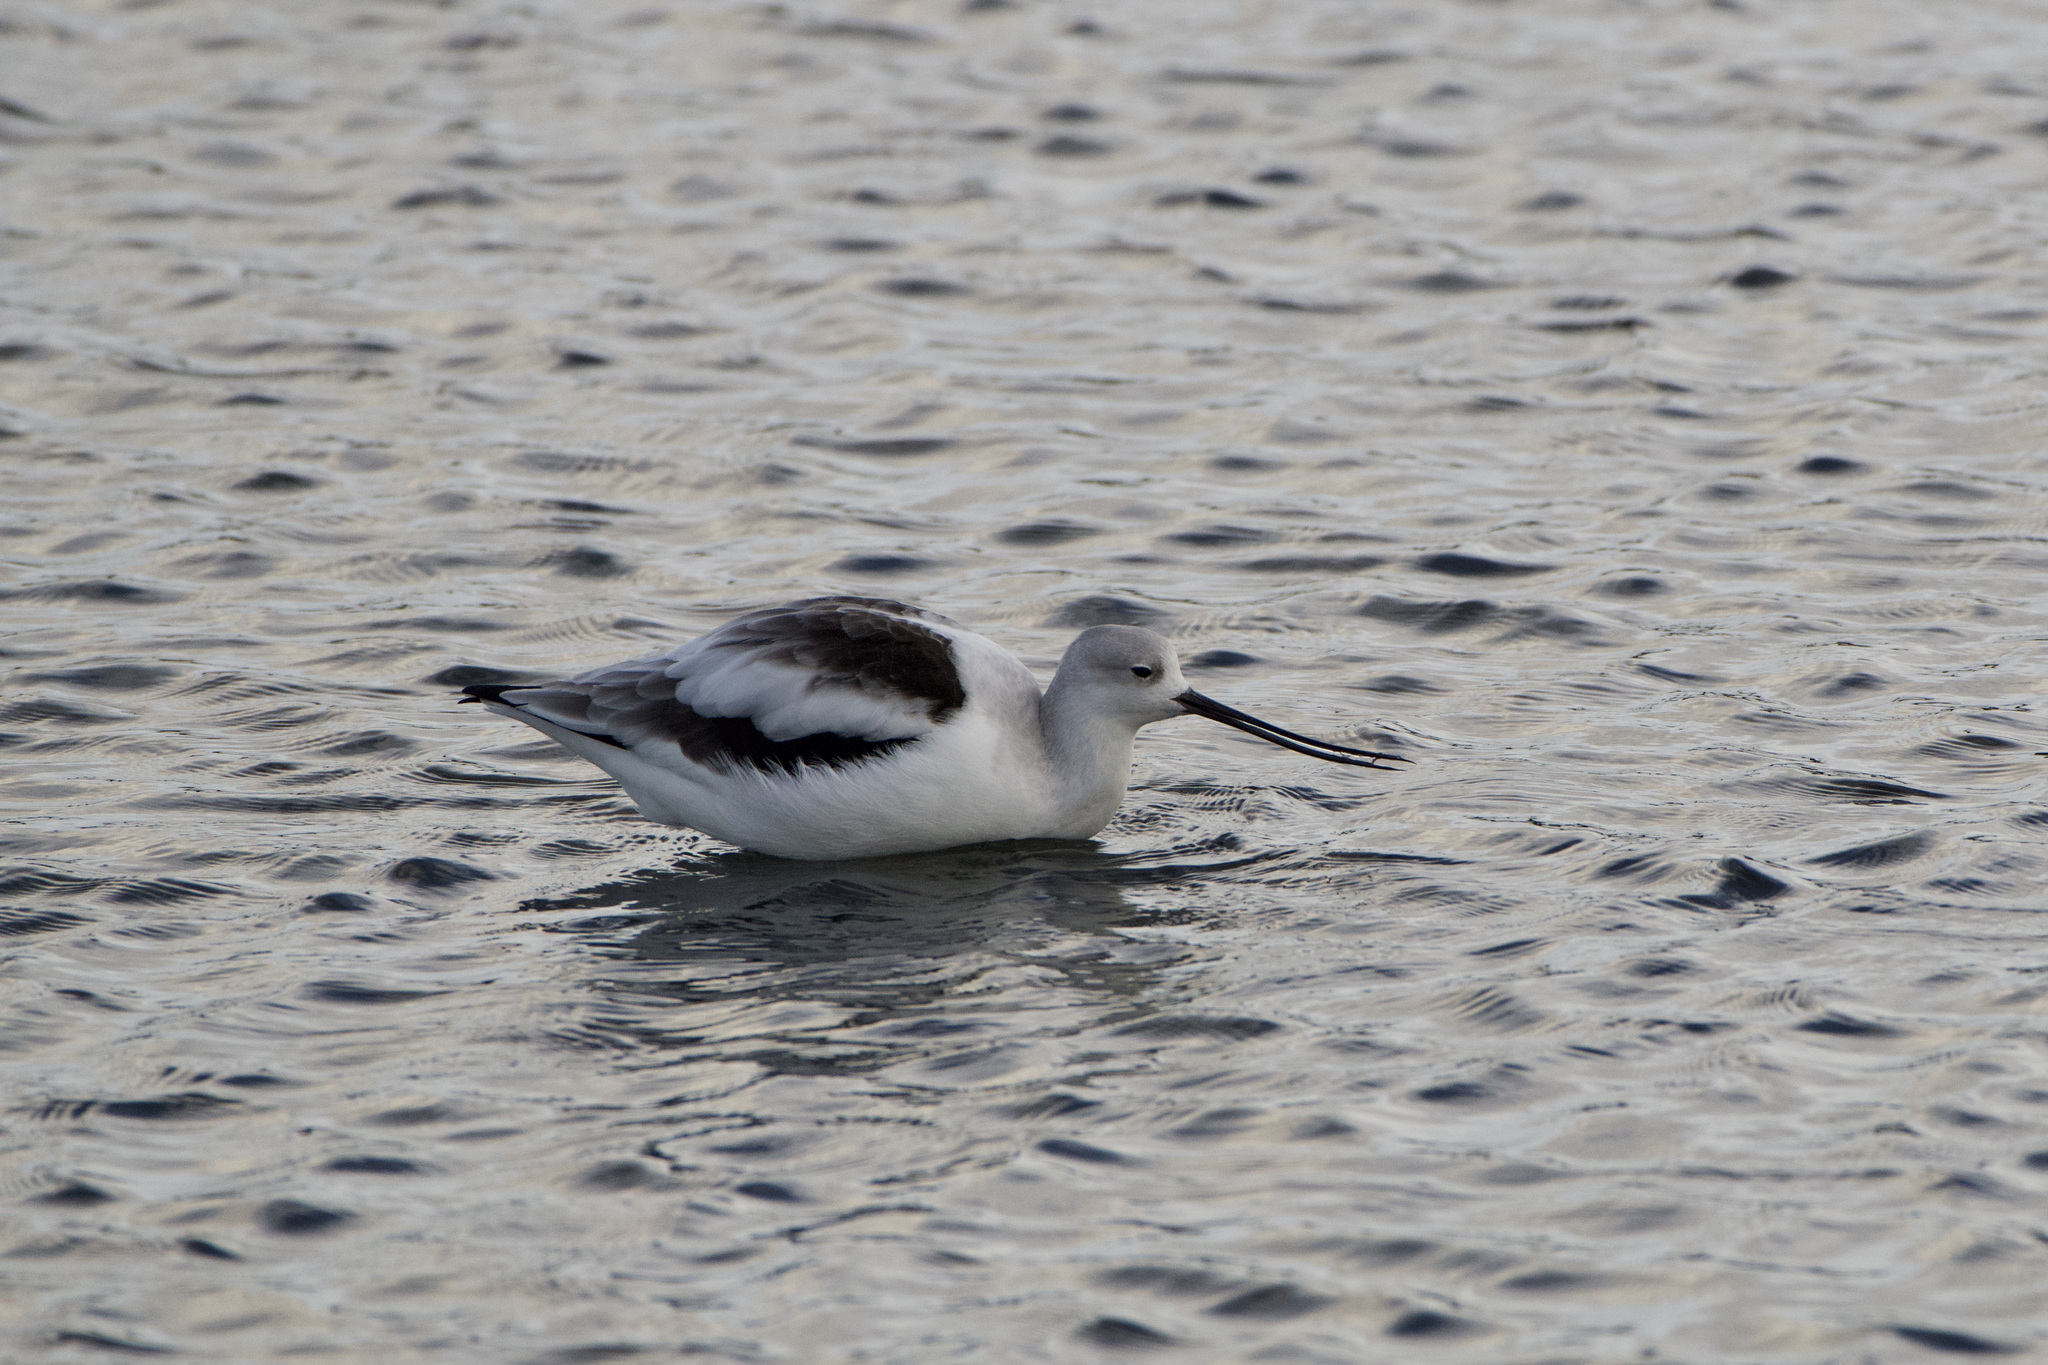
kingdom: Animalia
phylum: Chordata
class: Aves
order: Charadriiformes
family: Recurvirostridae
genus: Recurvirostra
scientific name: Recurvirostra americana
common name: American avocet
